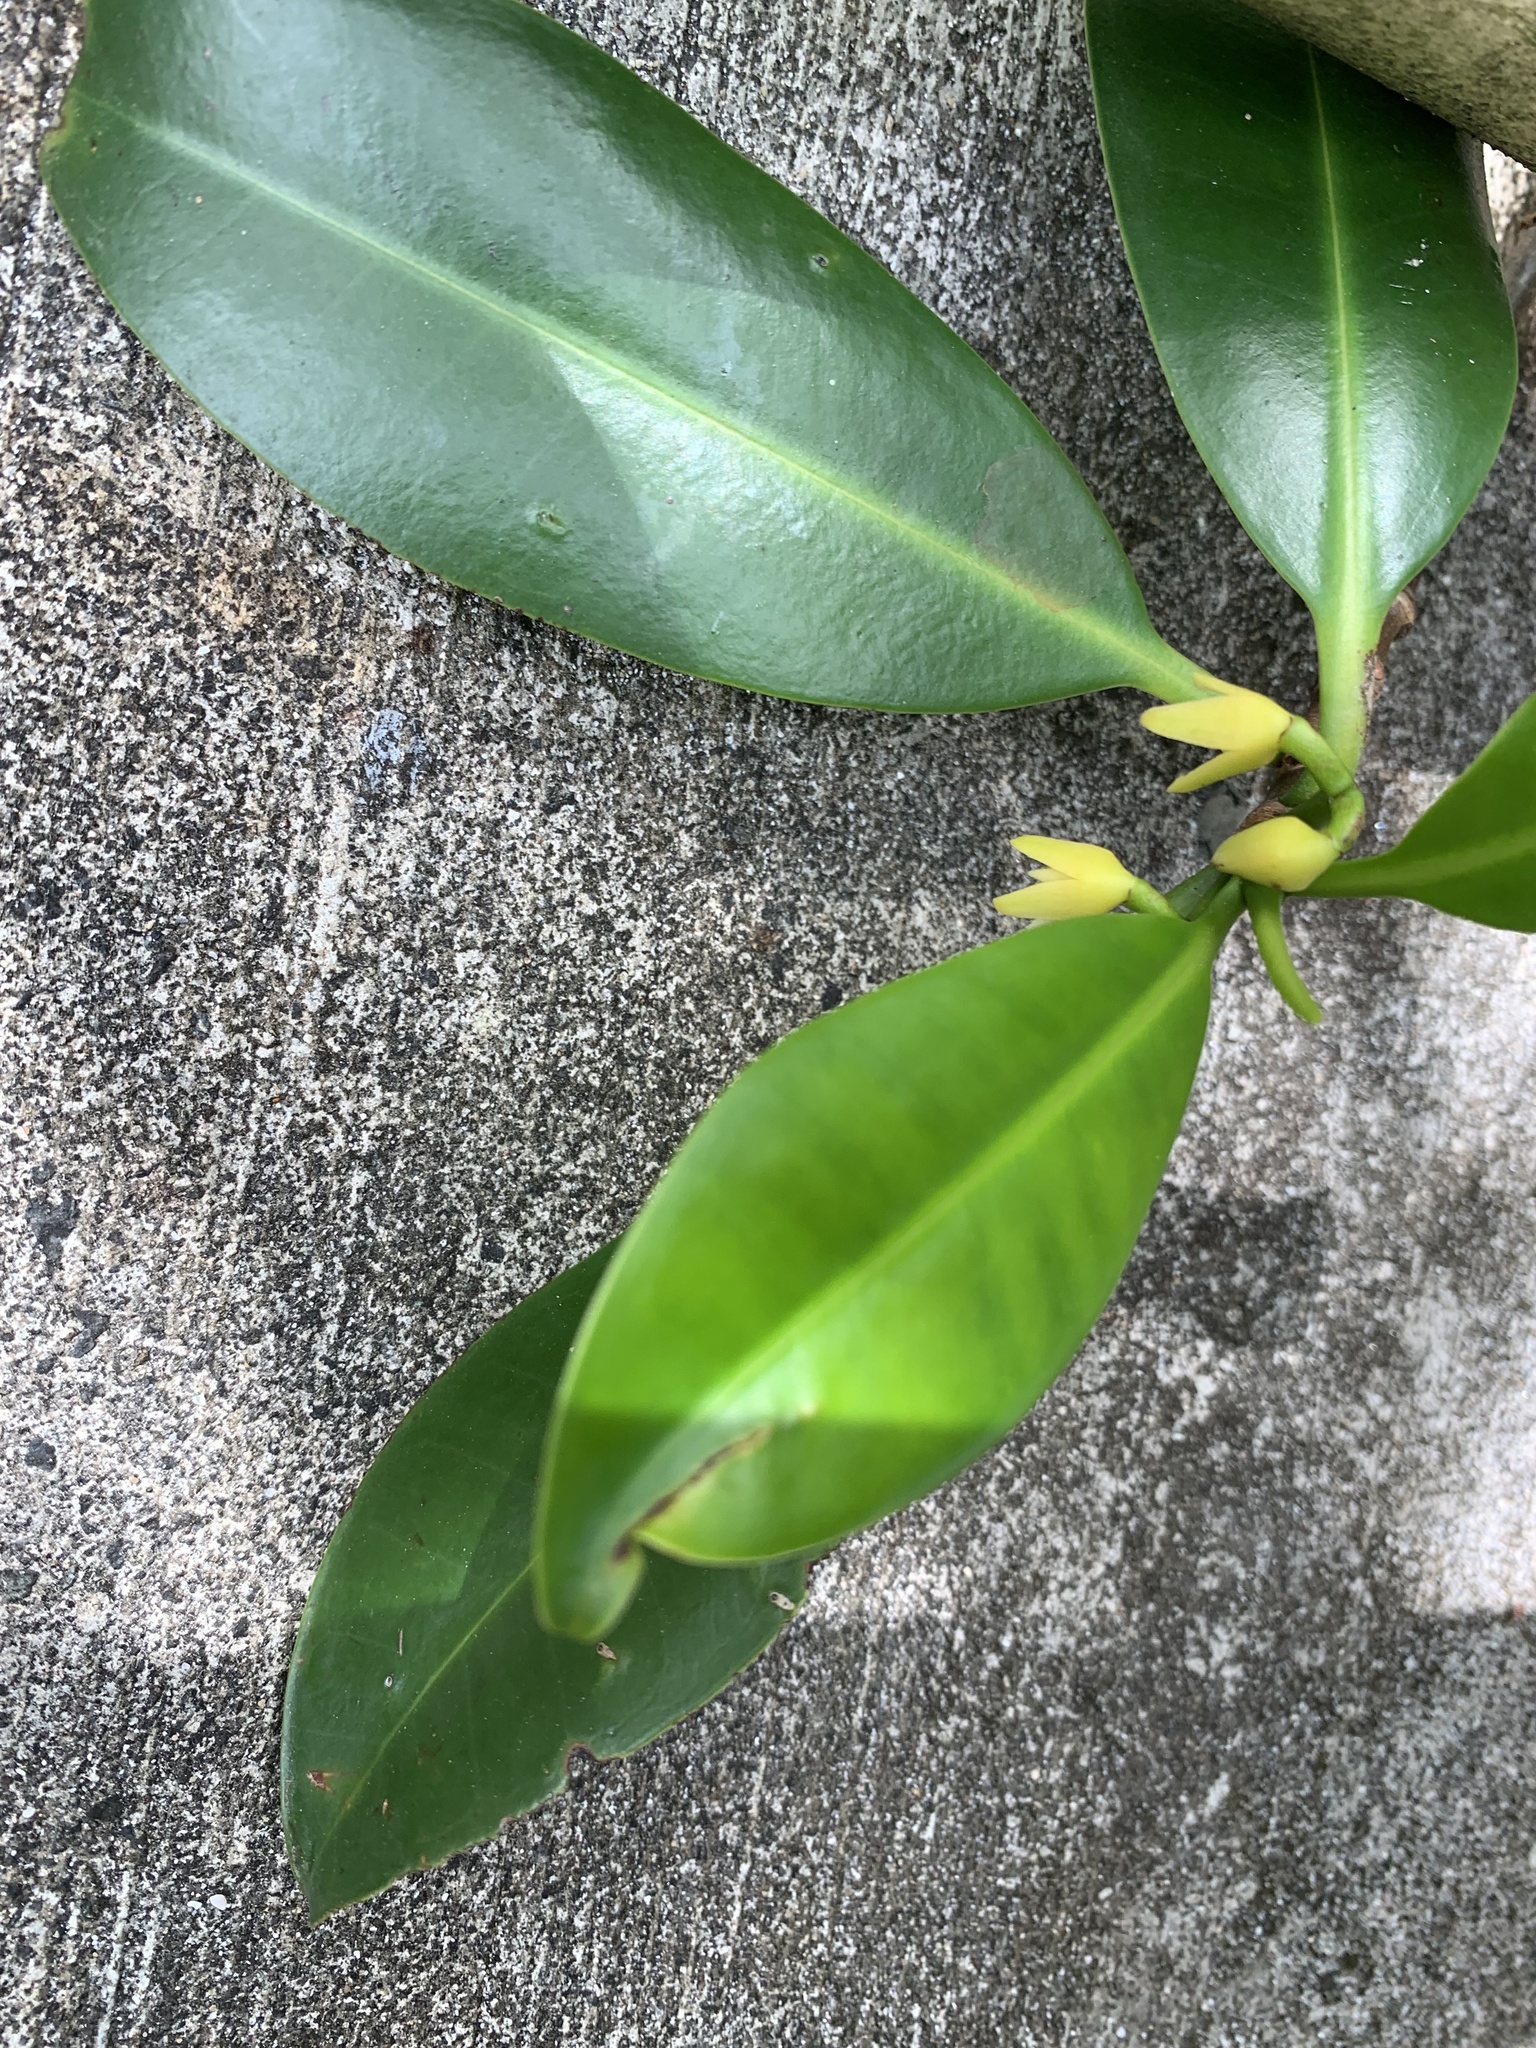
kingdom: Plantae
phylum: Tracheophyta
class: Magnoliopsida
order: Malpighiales
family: Rhizophoraceae
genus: Rhizophora
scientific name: Rhizophora mangle
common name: Red mangrove
